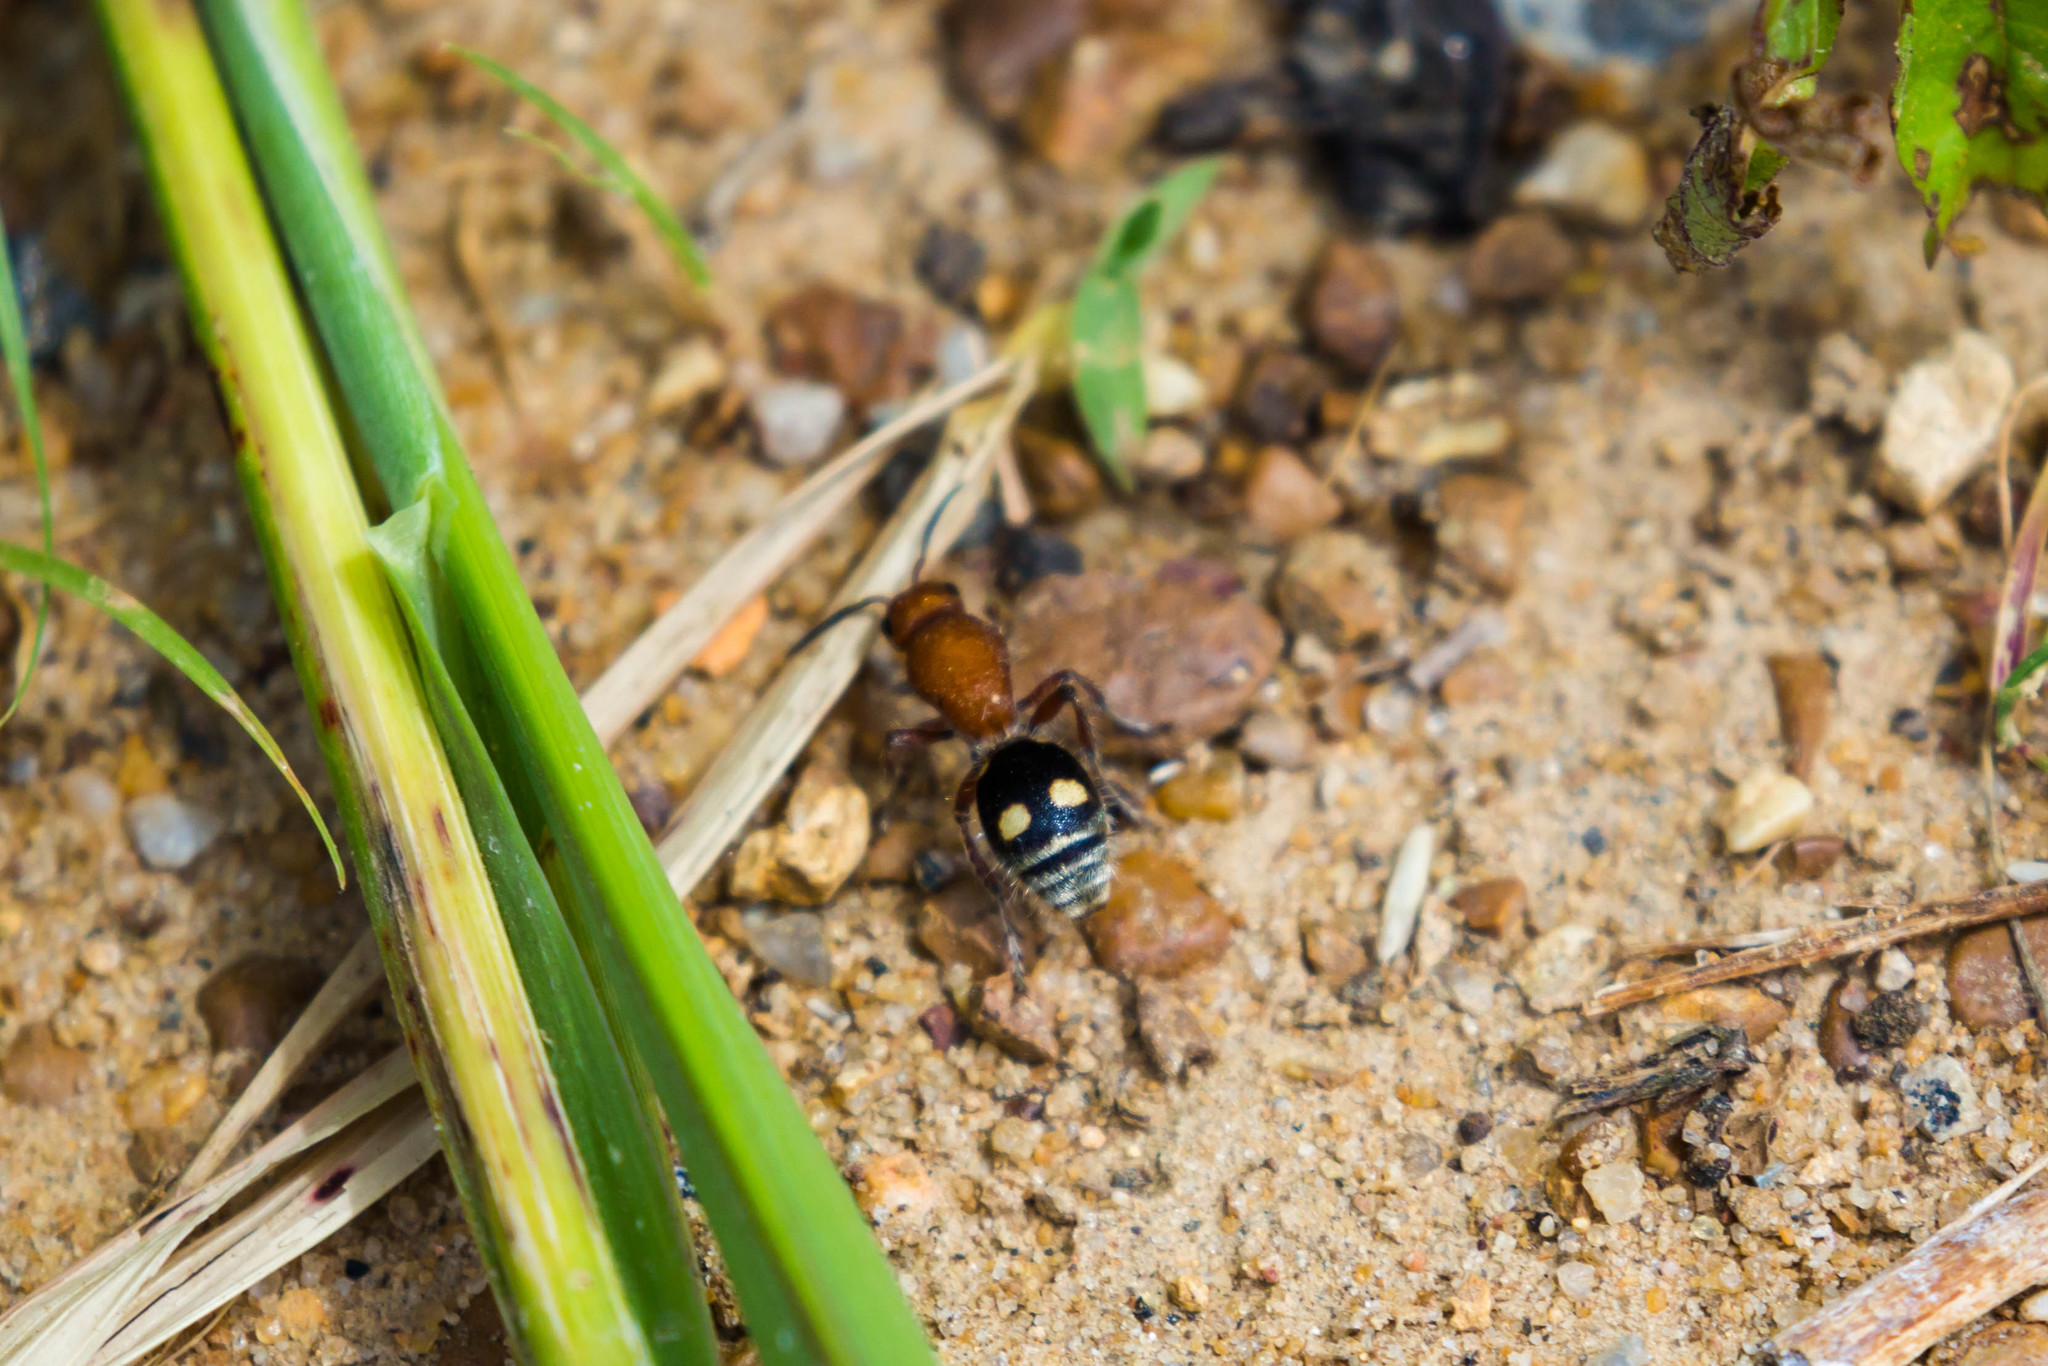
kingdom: Animalia
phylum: Arthropoda
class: Insecta
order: Hymenoptera
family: Mutillidae
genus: Dasymutilla
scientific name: Dasymutilla
